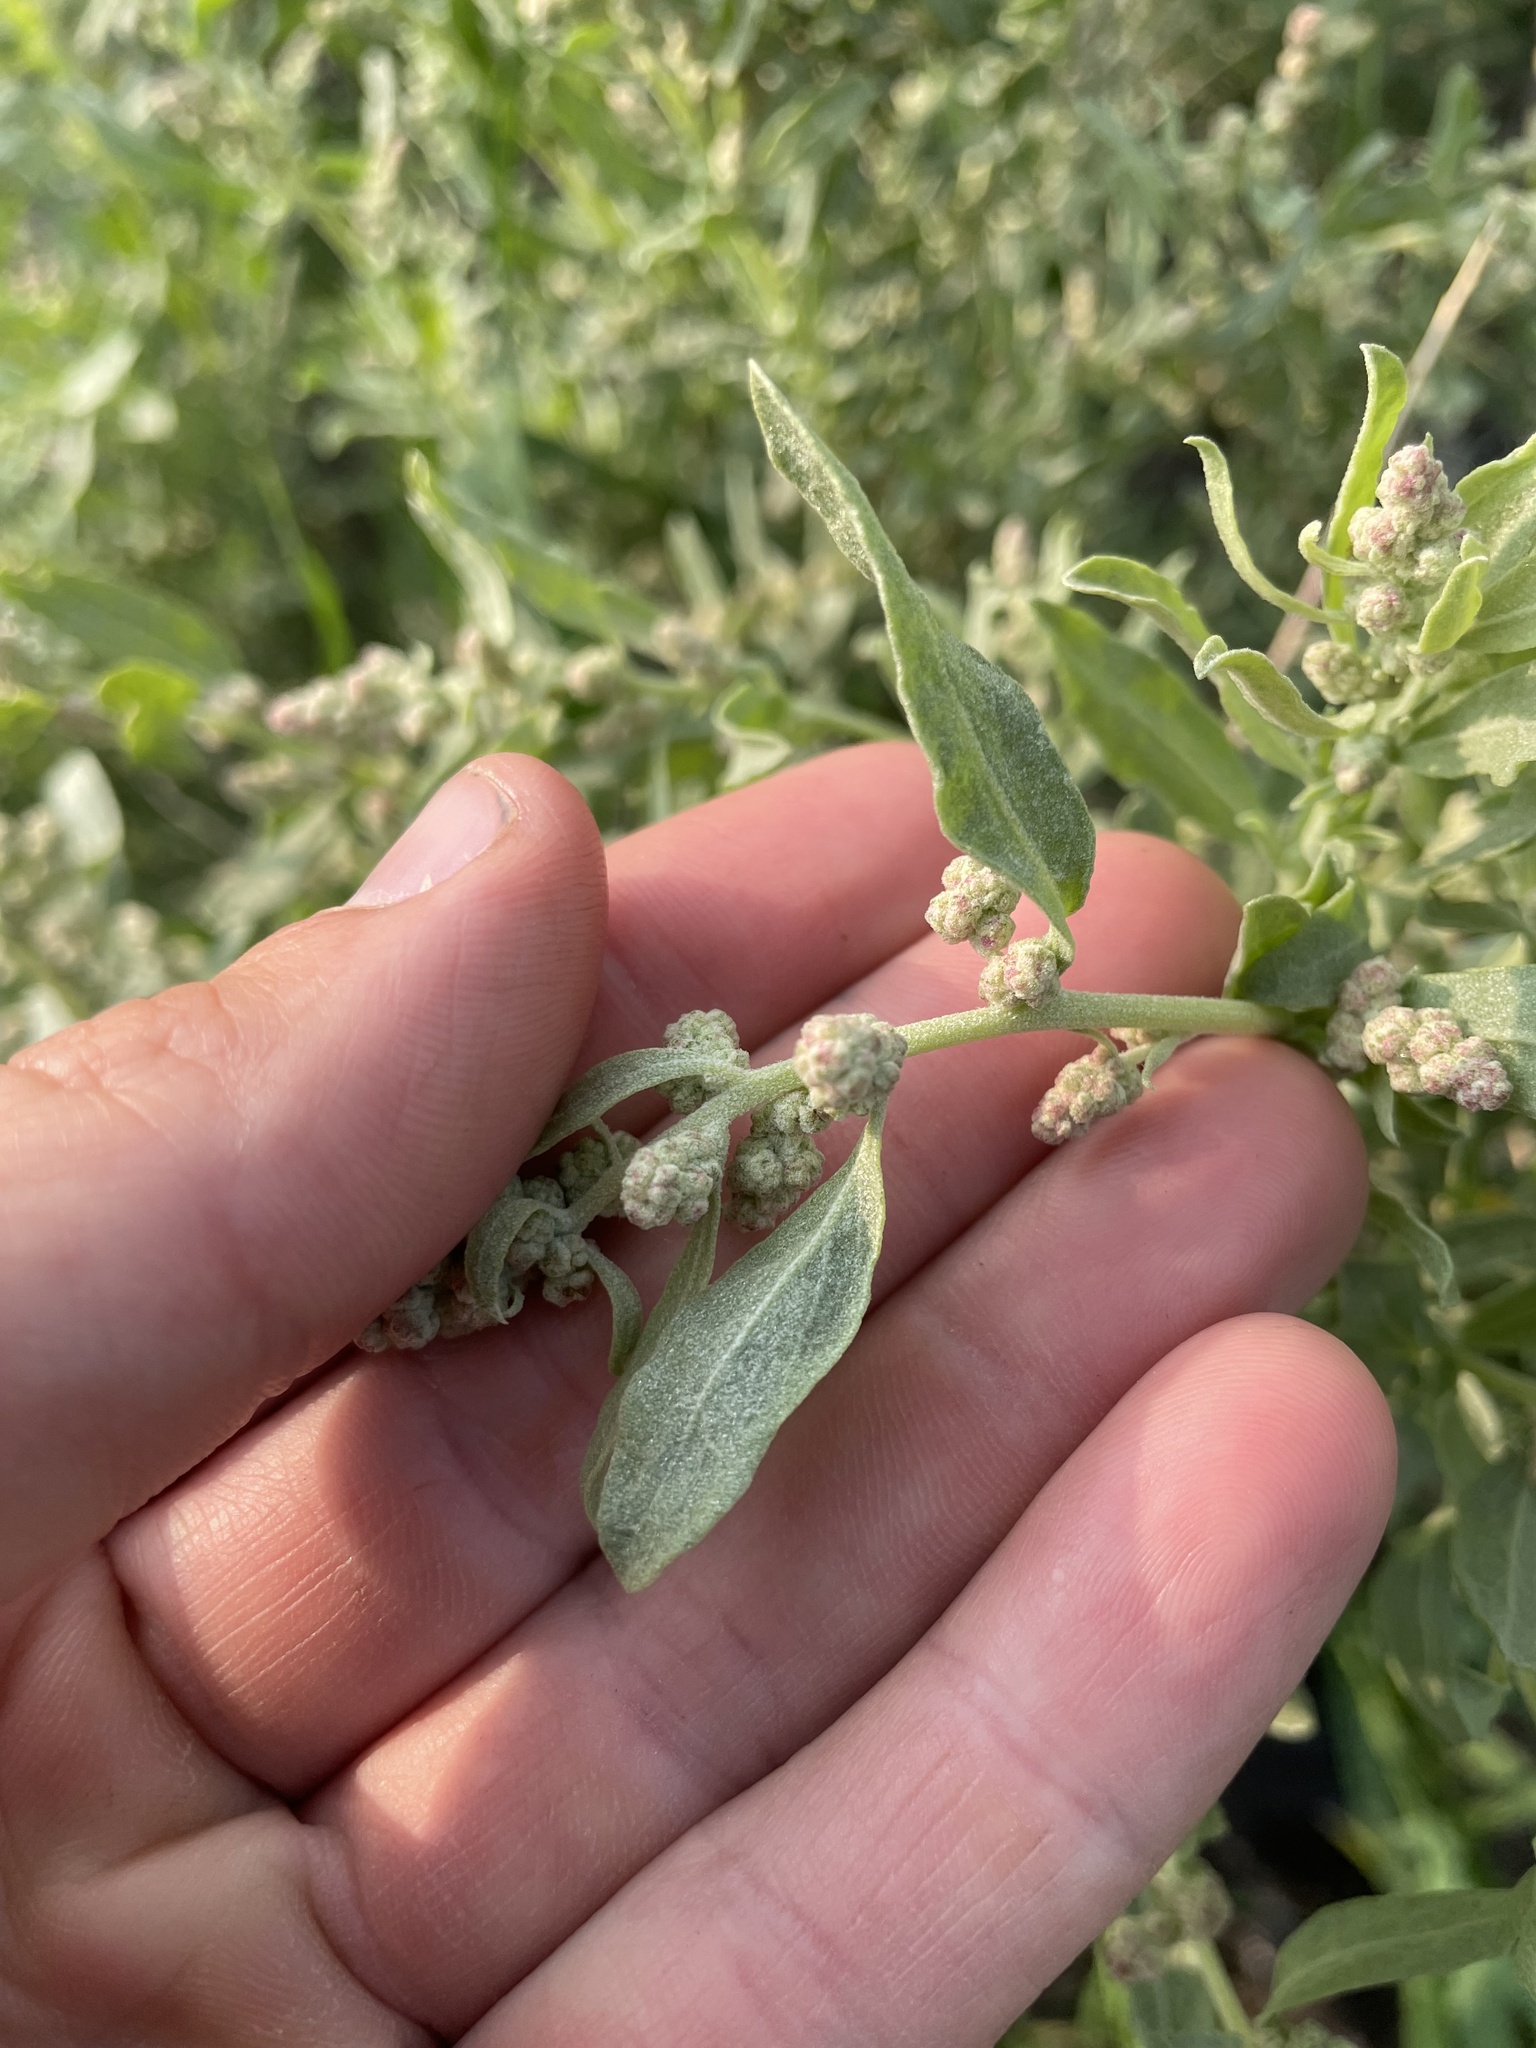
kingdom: Plantae
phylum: Tracheophyta
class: Magnoliopsida
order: Caryophyllales
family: Amaranthaceae
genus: Atriplex
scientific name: Atriplex canescens
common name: Four-wing saltbush
